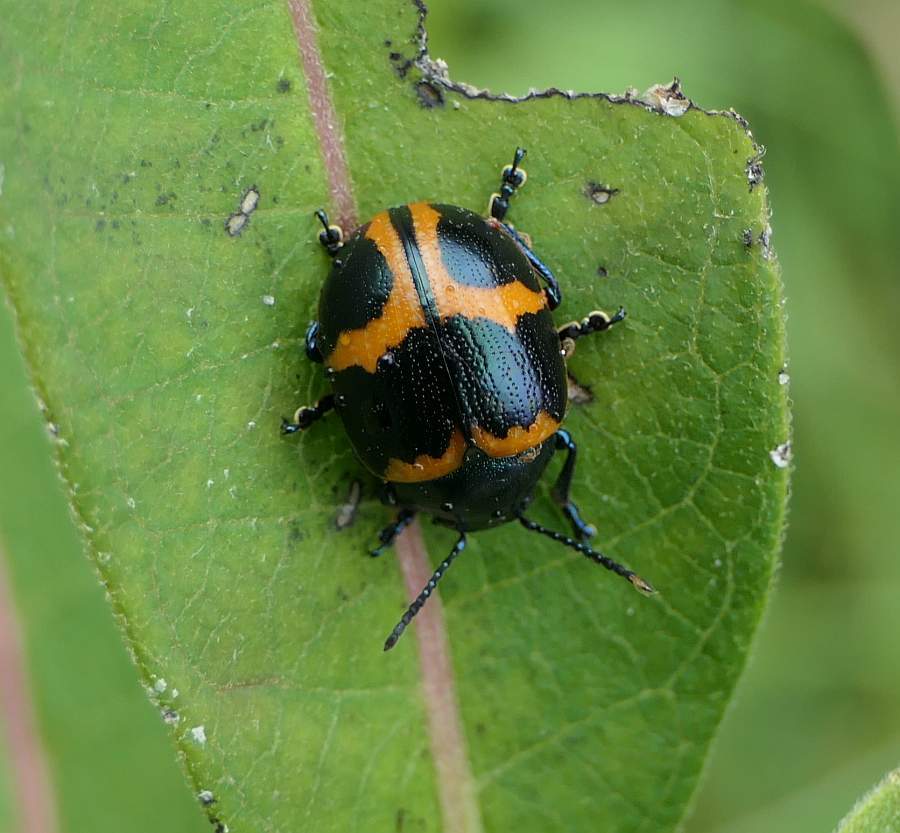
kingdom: Animalia
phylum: Arthropoda
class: Insecta
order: Coleoptera
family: Chrysomelidae
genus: Labidomera
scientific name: Labidomera clivicollis
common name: Swamp milkweed leaf beetle
